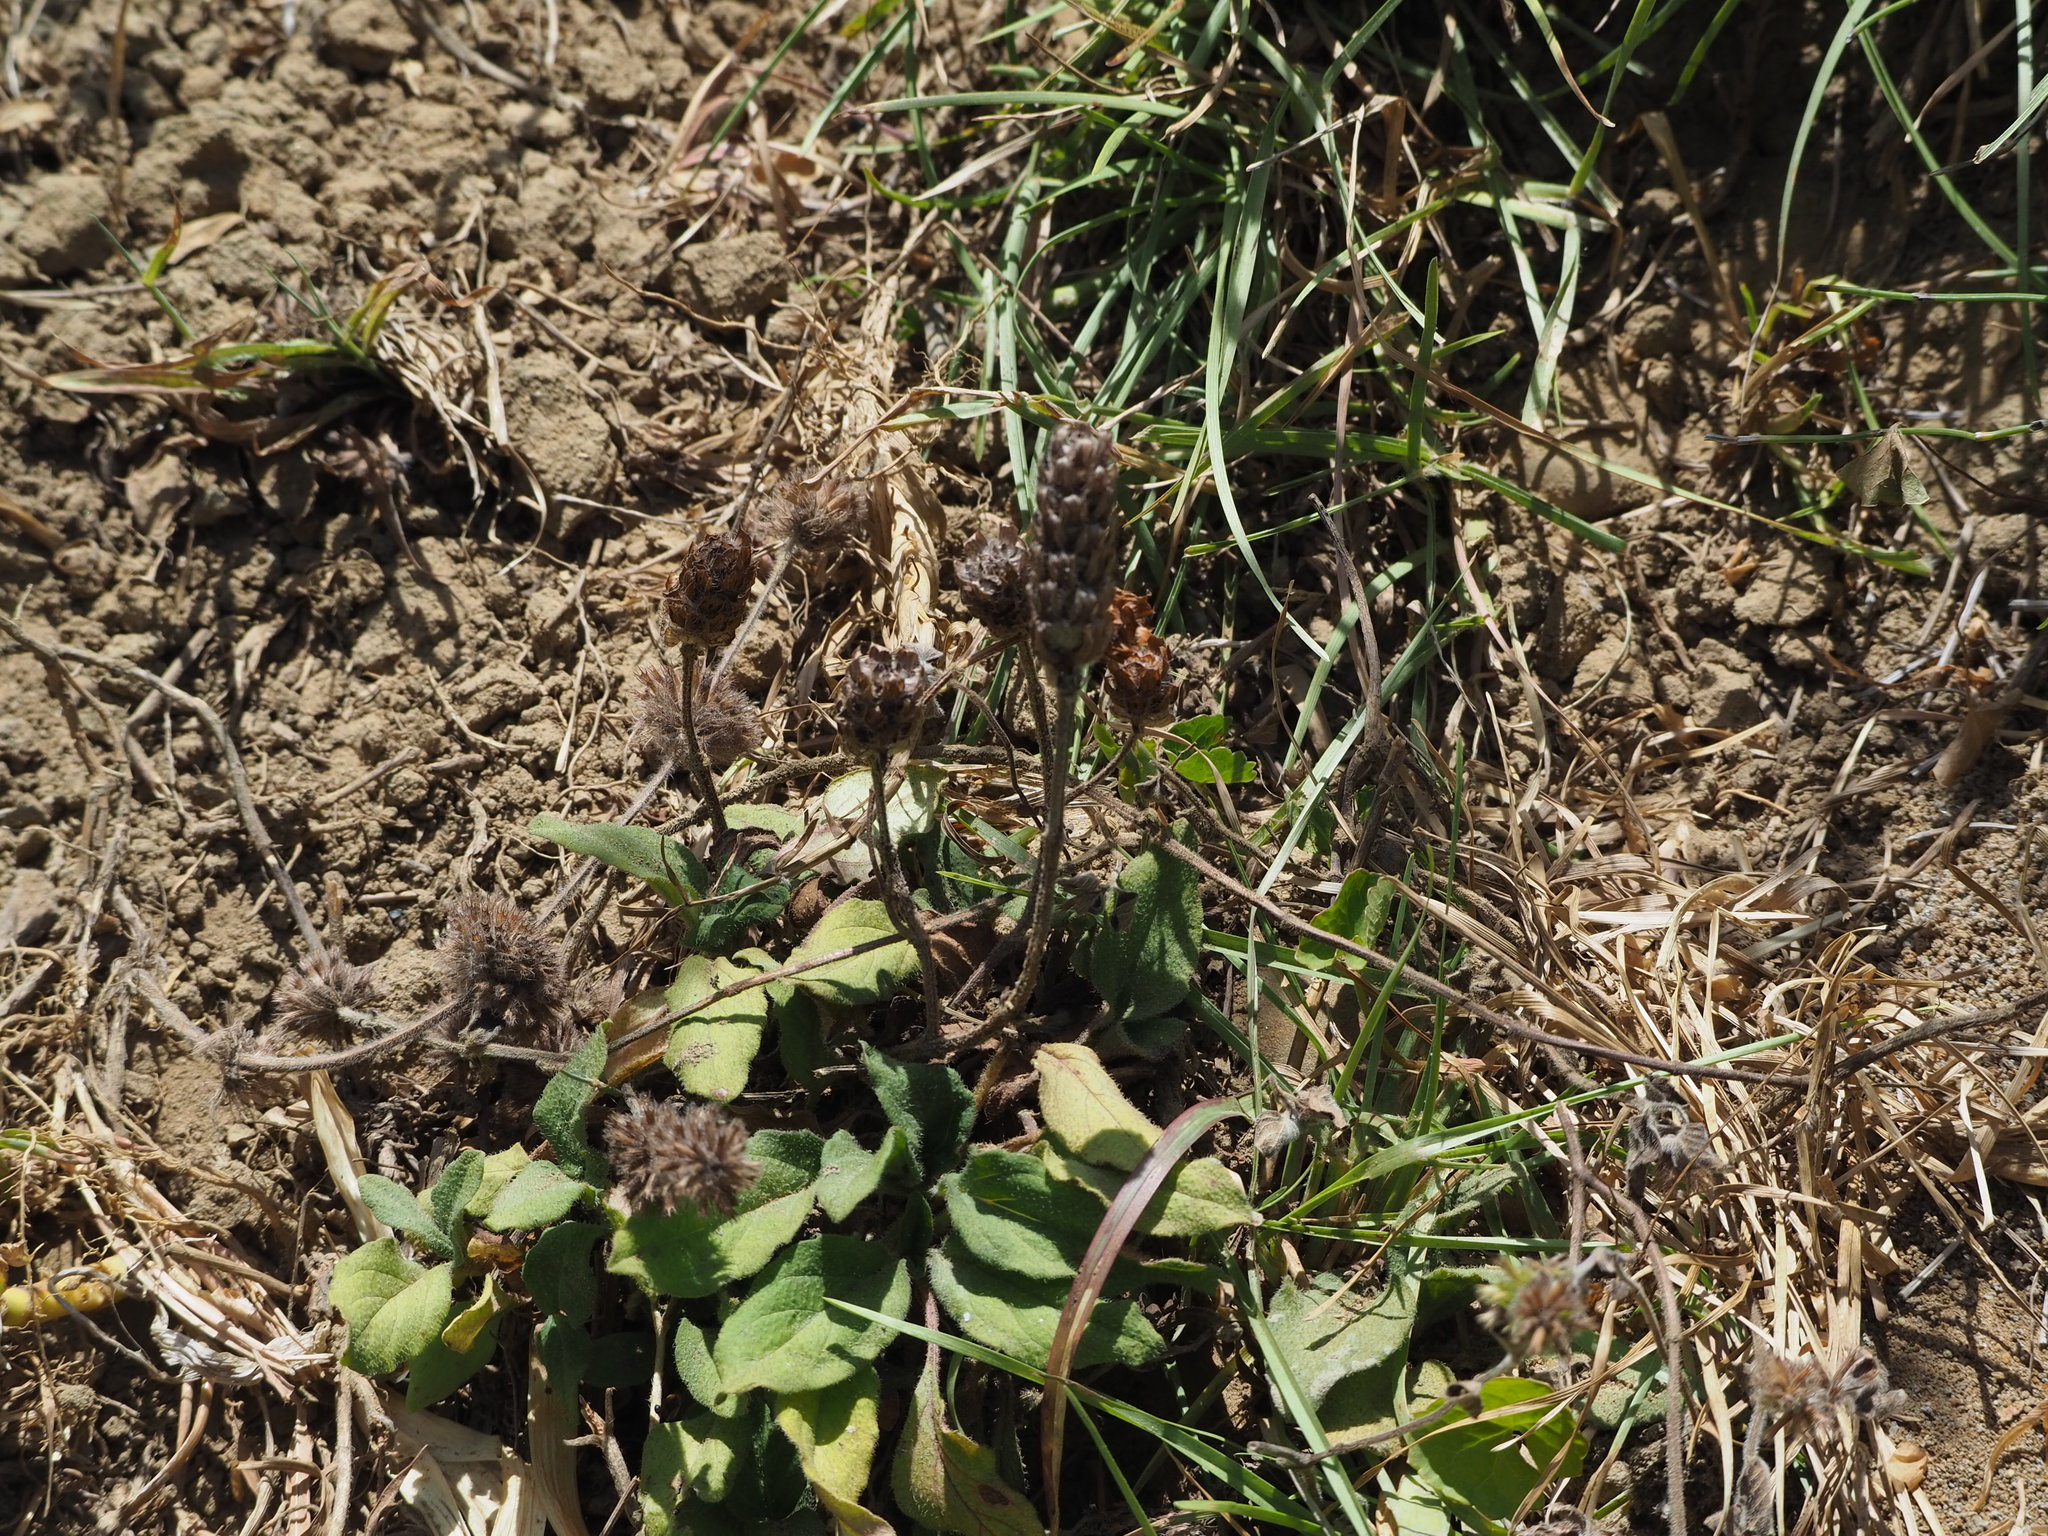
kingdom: Plantae
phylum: Tracheophyta
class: Magnoliopsida
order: Lamiales
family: Lamiaceae
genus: Prunella
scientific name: Prunella vulgaris
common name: Heal-all
